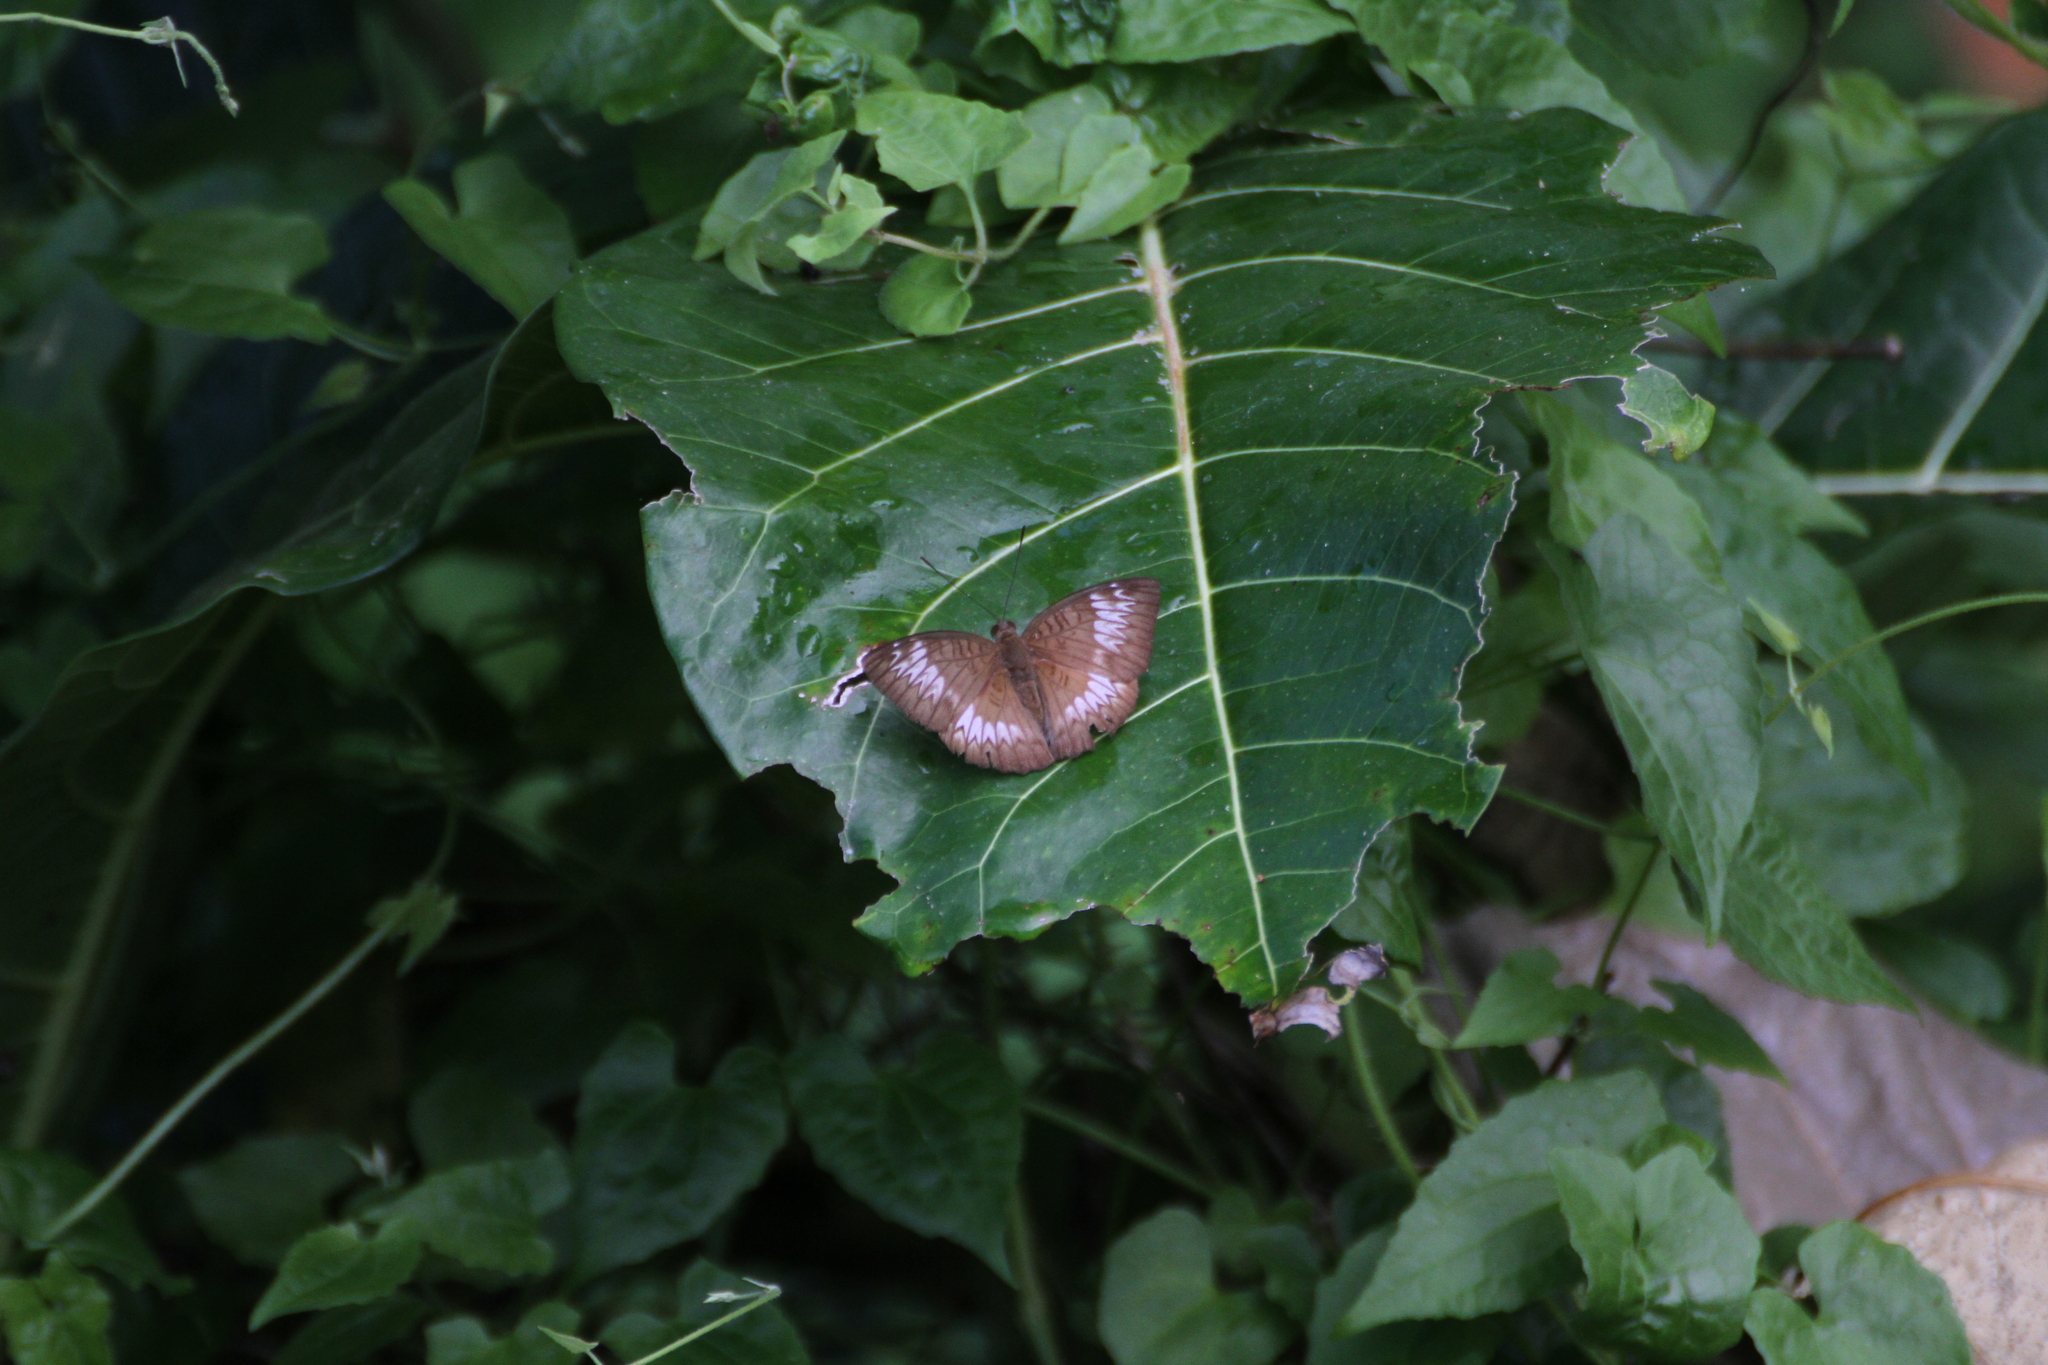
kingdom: Animalia
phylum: Arthropoda
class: Insecta
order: Lepidoptera
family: Nymphalidae
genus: Euthalia
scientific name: Euthalia monina
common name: Powdered baron
